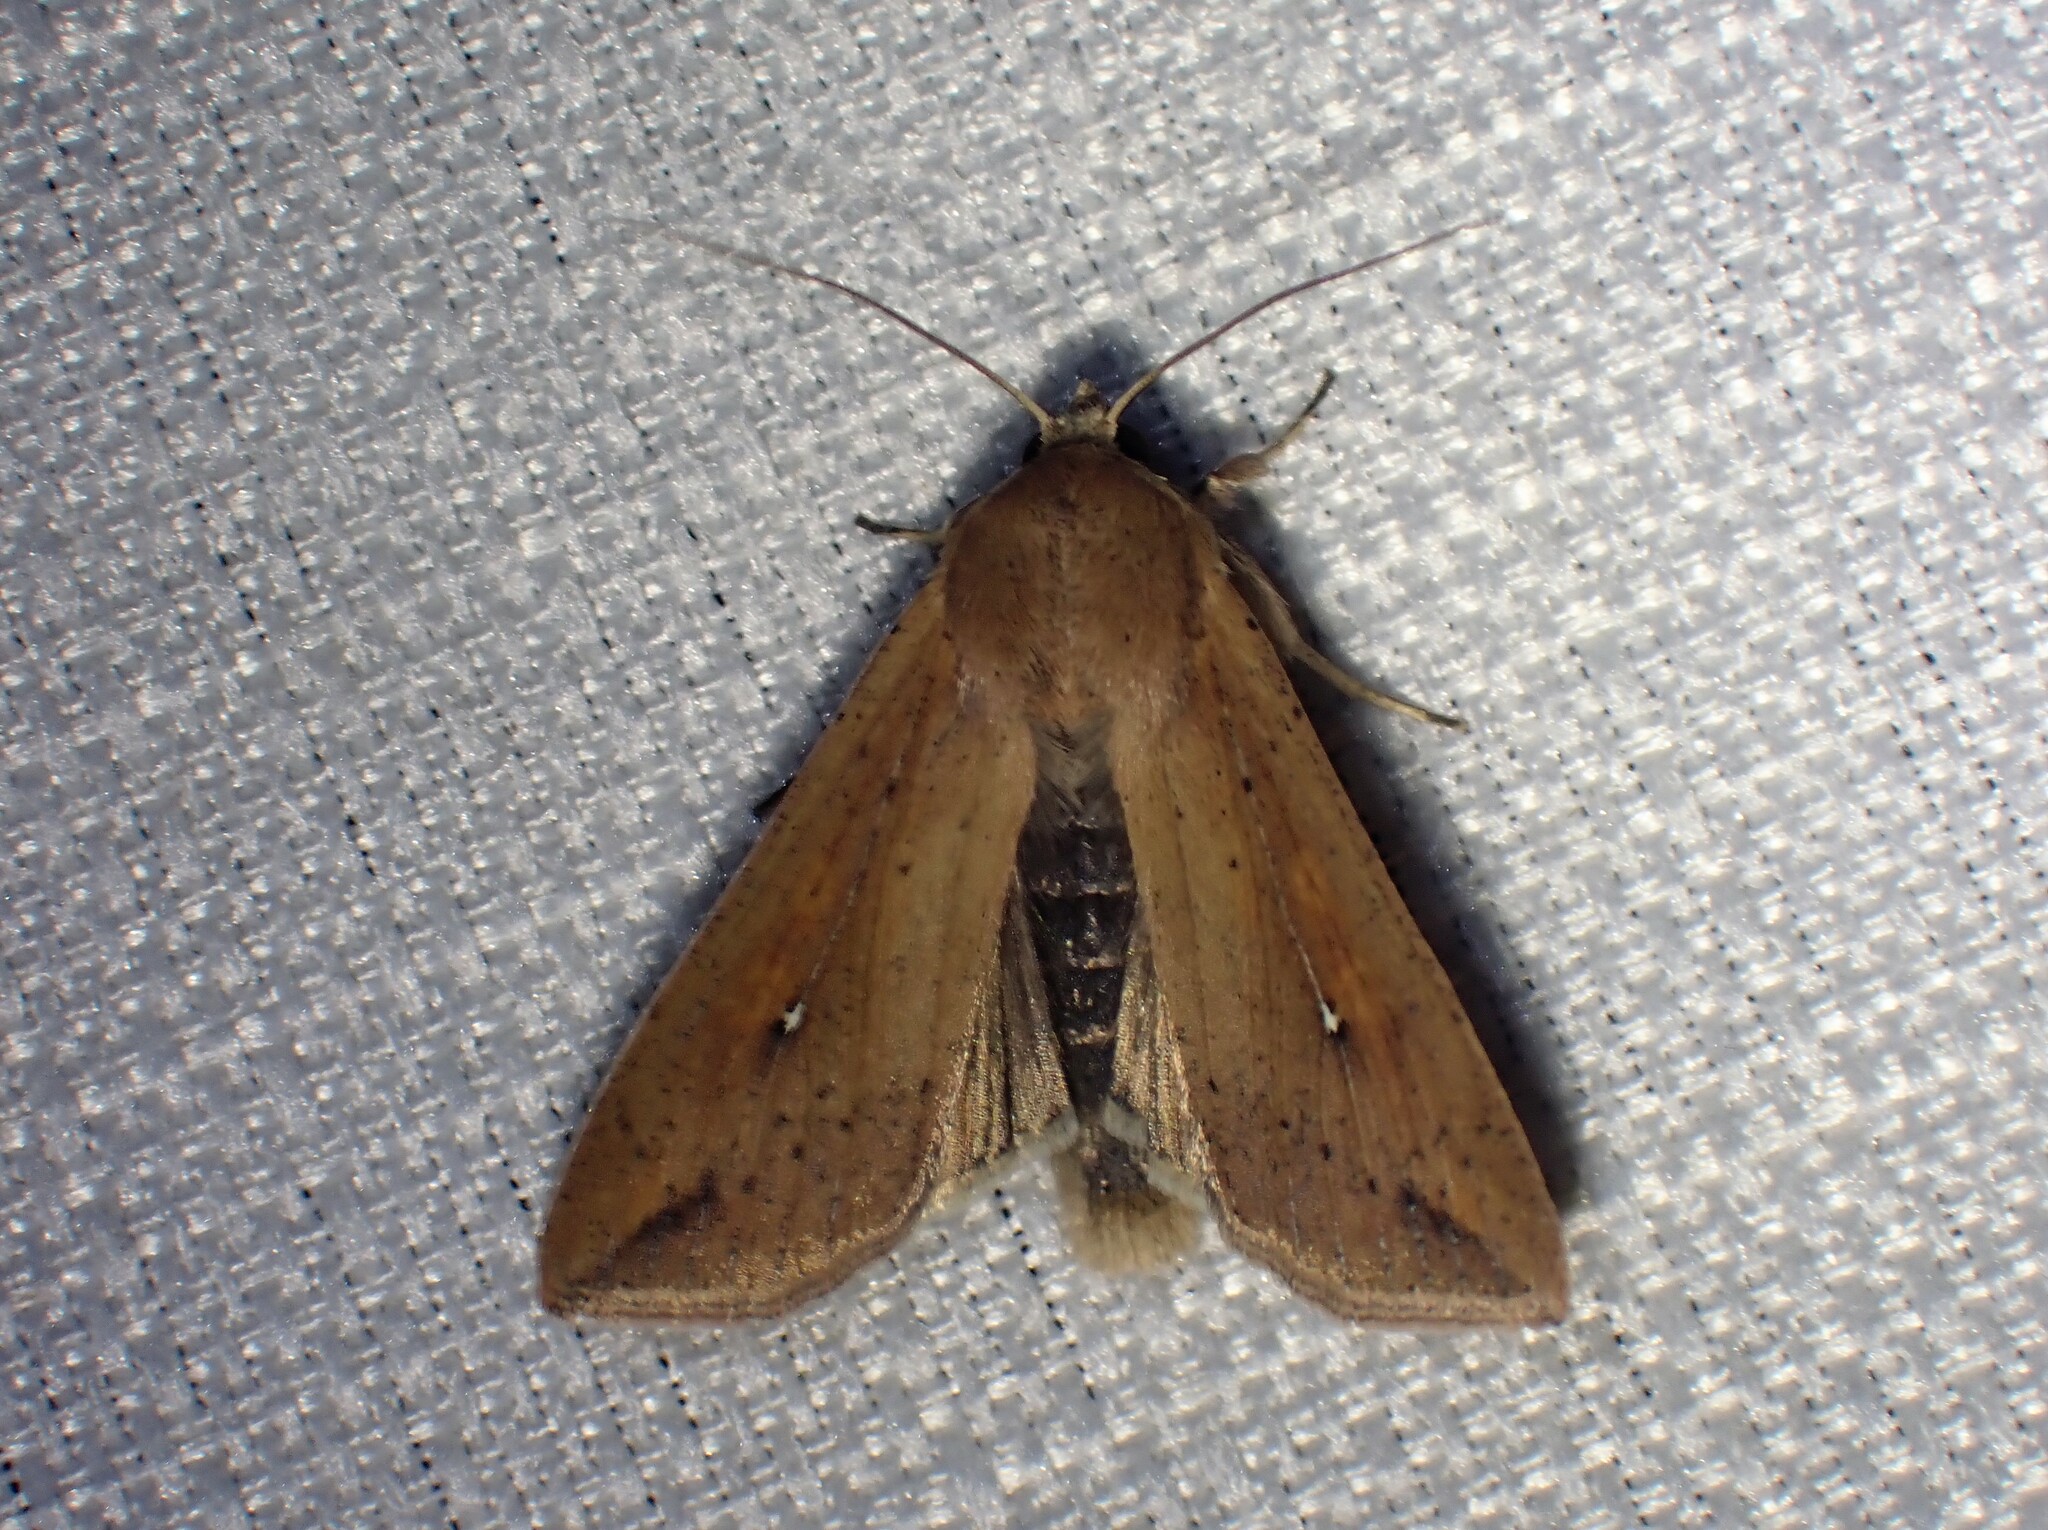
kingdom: Animalia
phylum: Arthropoda
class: Insecta
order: Lepidoptera
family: Noctuidae
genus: Mythimna
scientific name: Mythimna unipuncta
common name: White-speck
